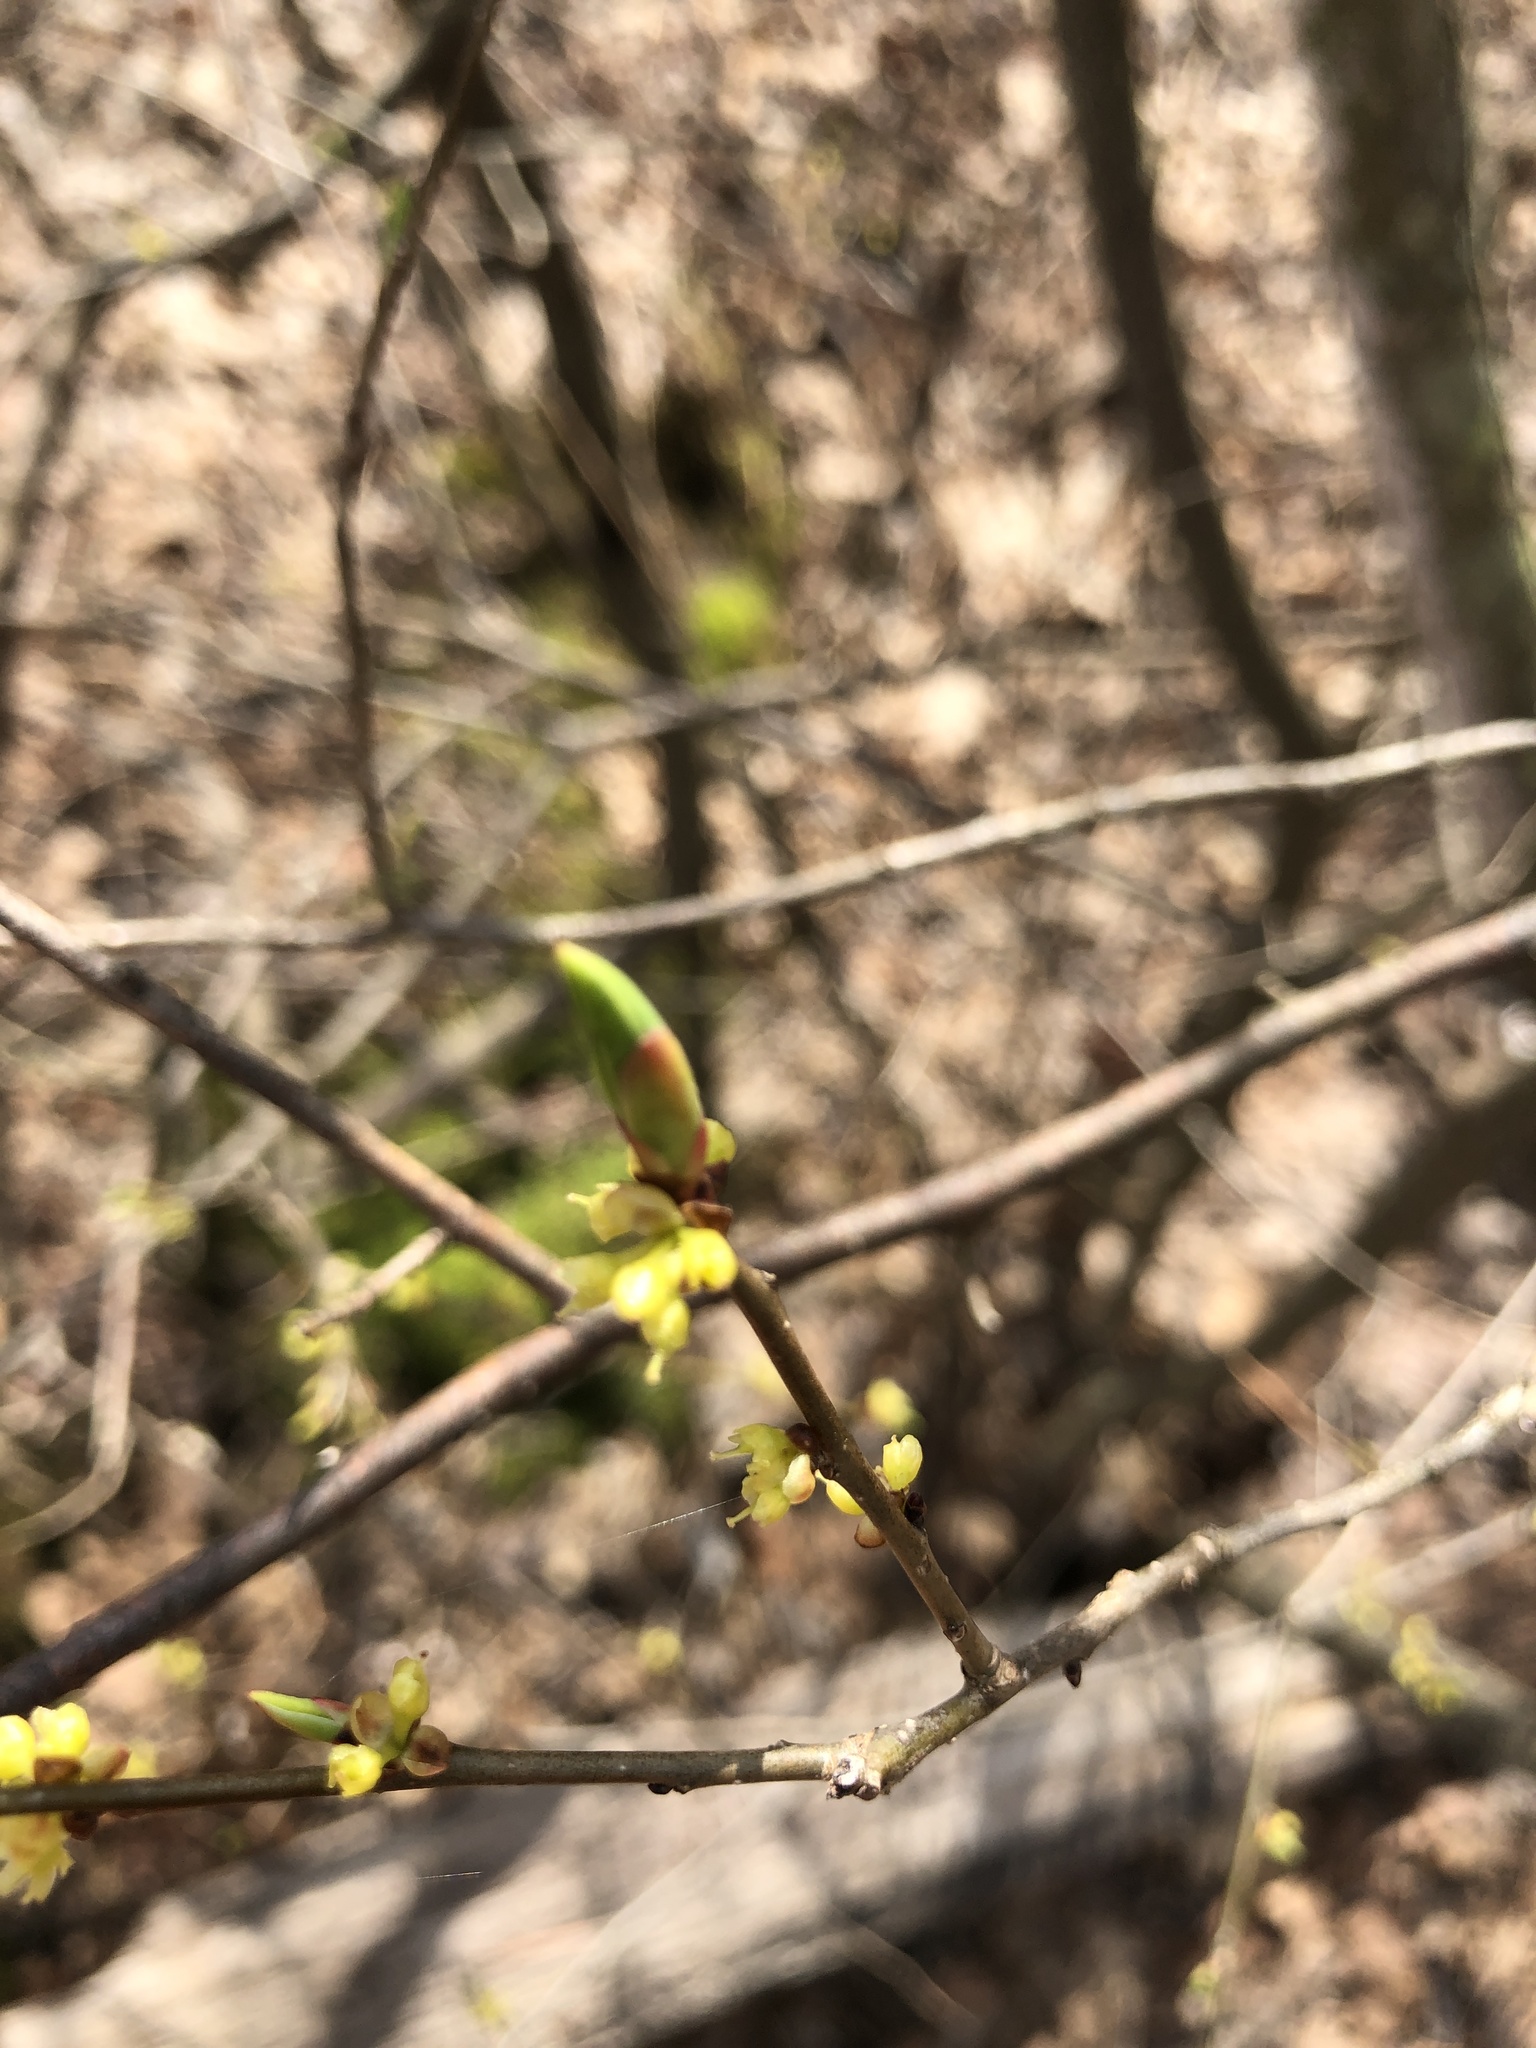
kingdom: Plantae
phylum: Tracheophyta
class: Magnoliopsida
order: Laurales
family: Lauraceae
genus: Lindera
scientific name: Lindera benzoin
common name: Spicebush
